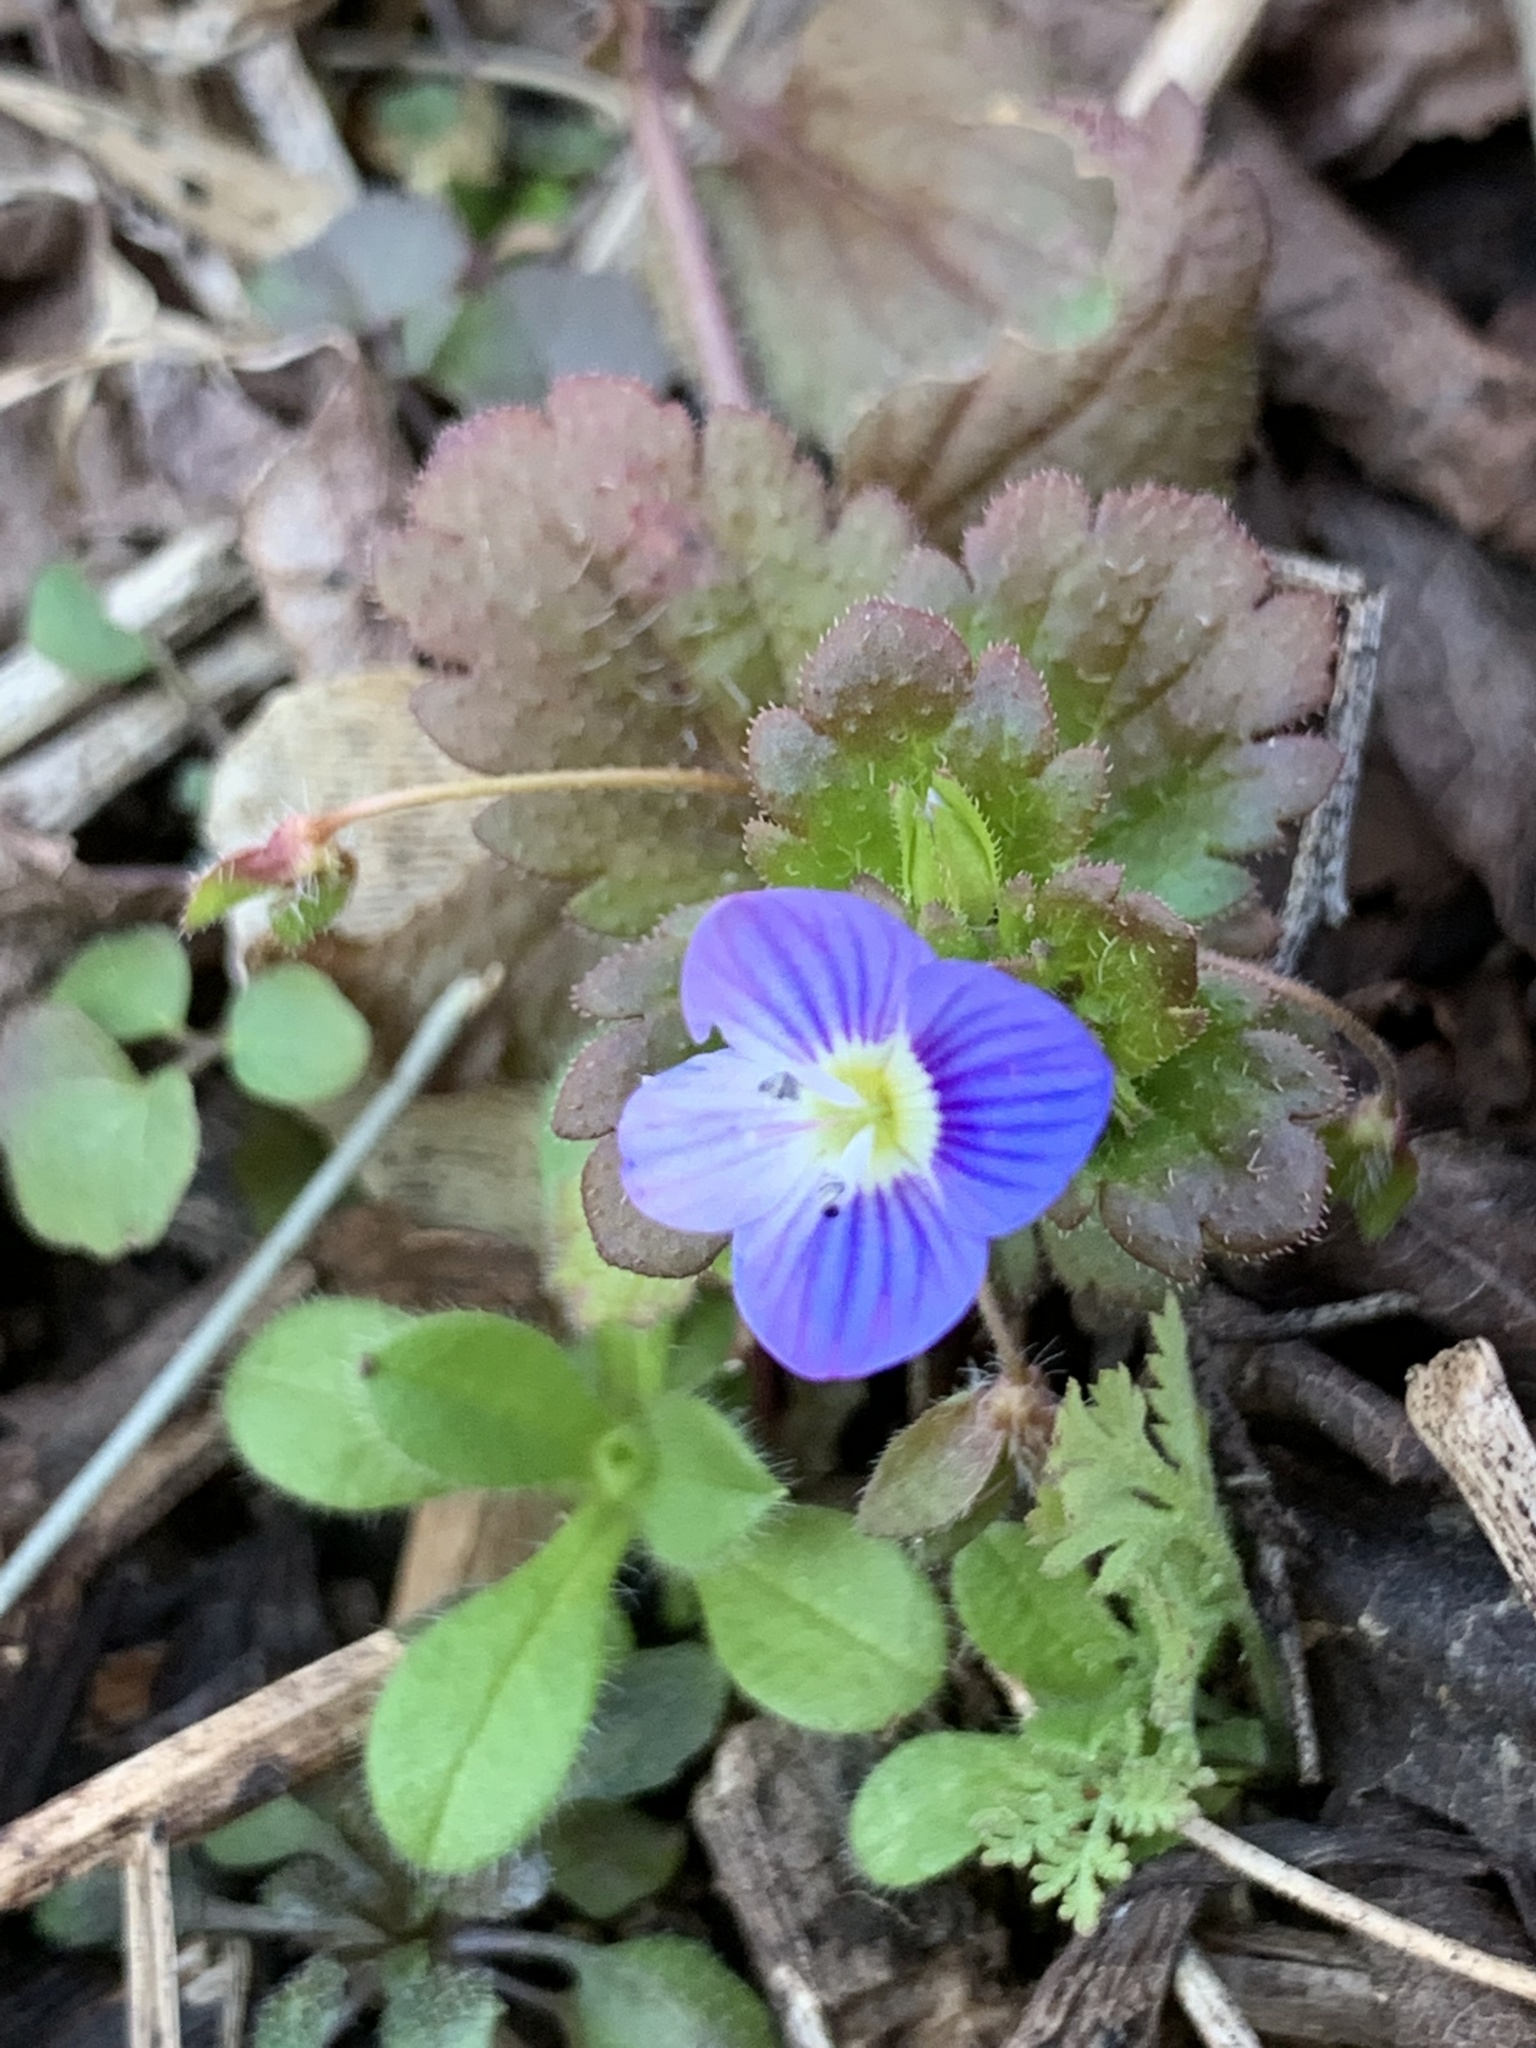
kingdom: Plantae
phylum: Tracheophyta
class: Magnoliopsida
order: Lamiales
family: Plantaginaceae
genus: Veronica
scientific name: Veronica persica
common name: Common field-speedwell
